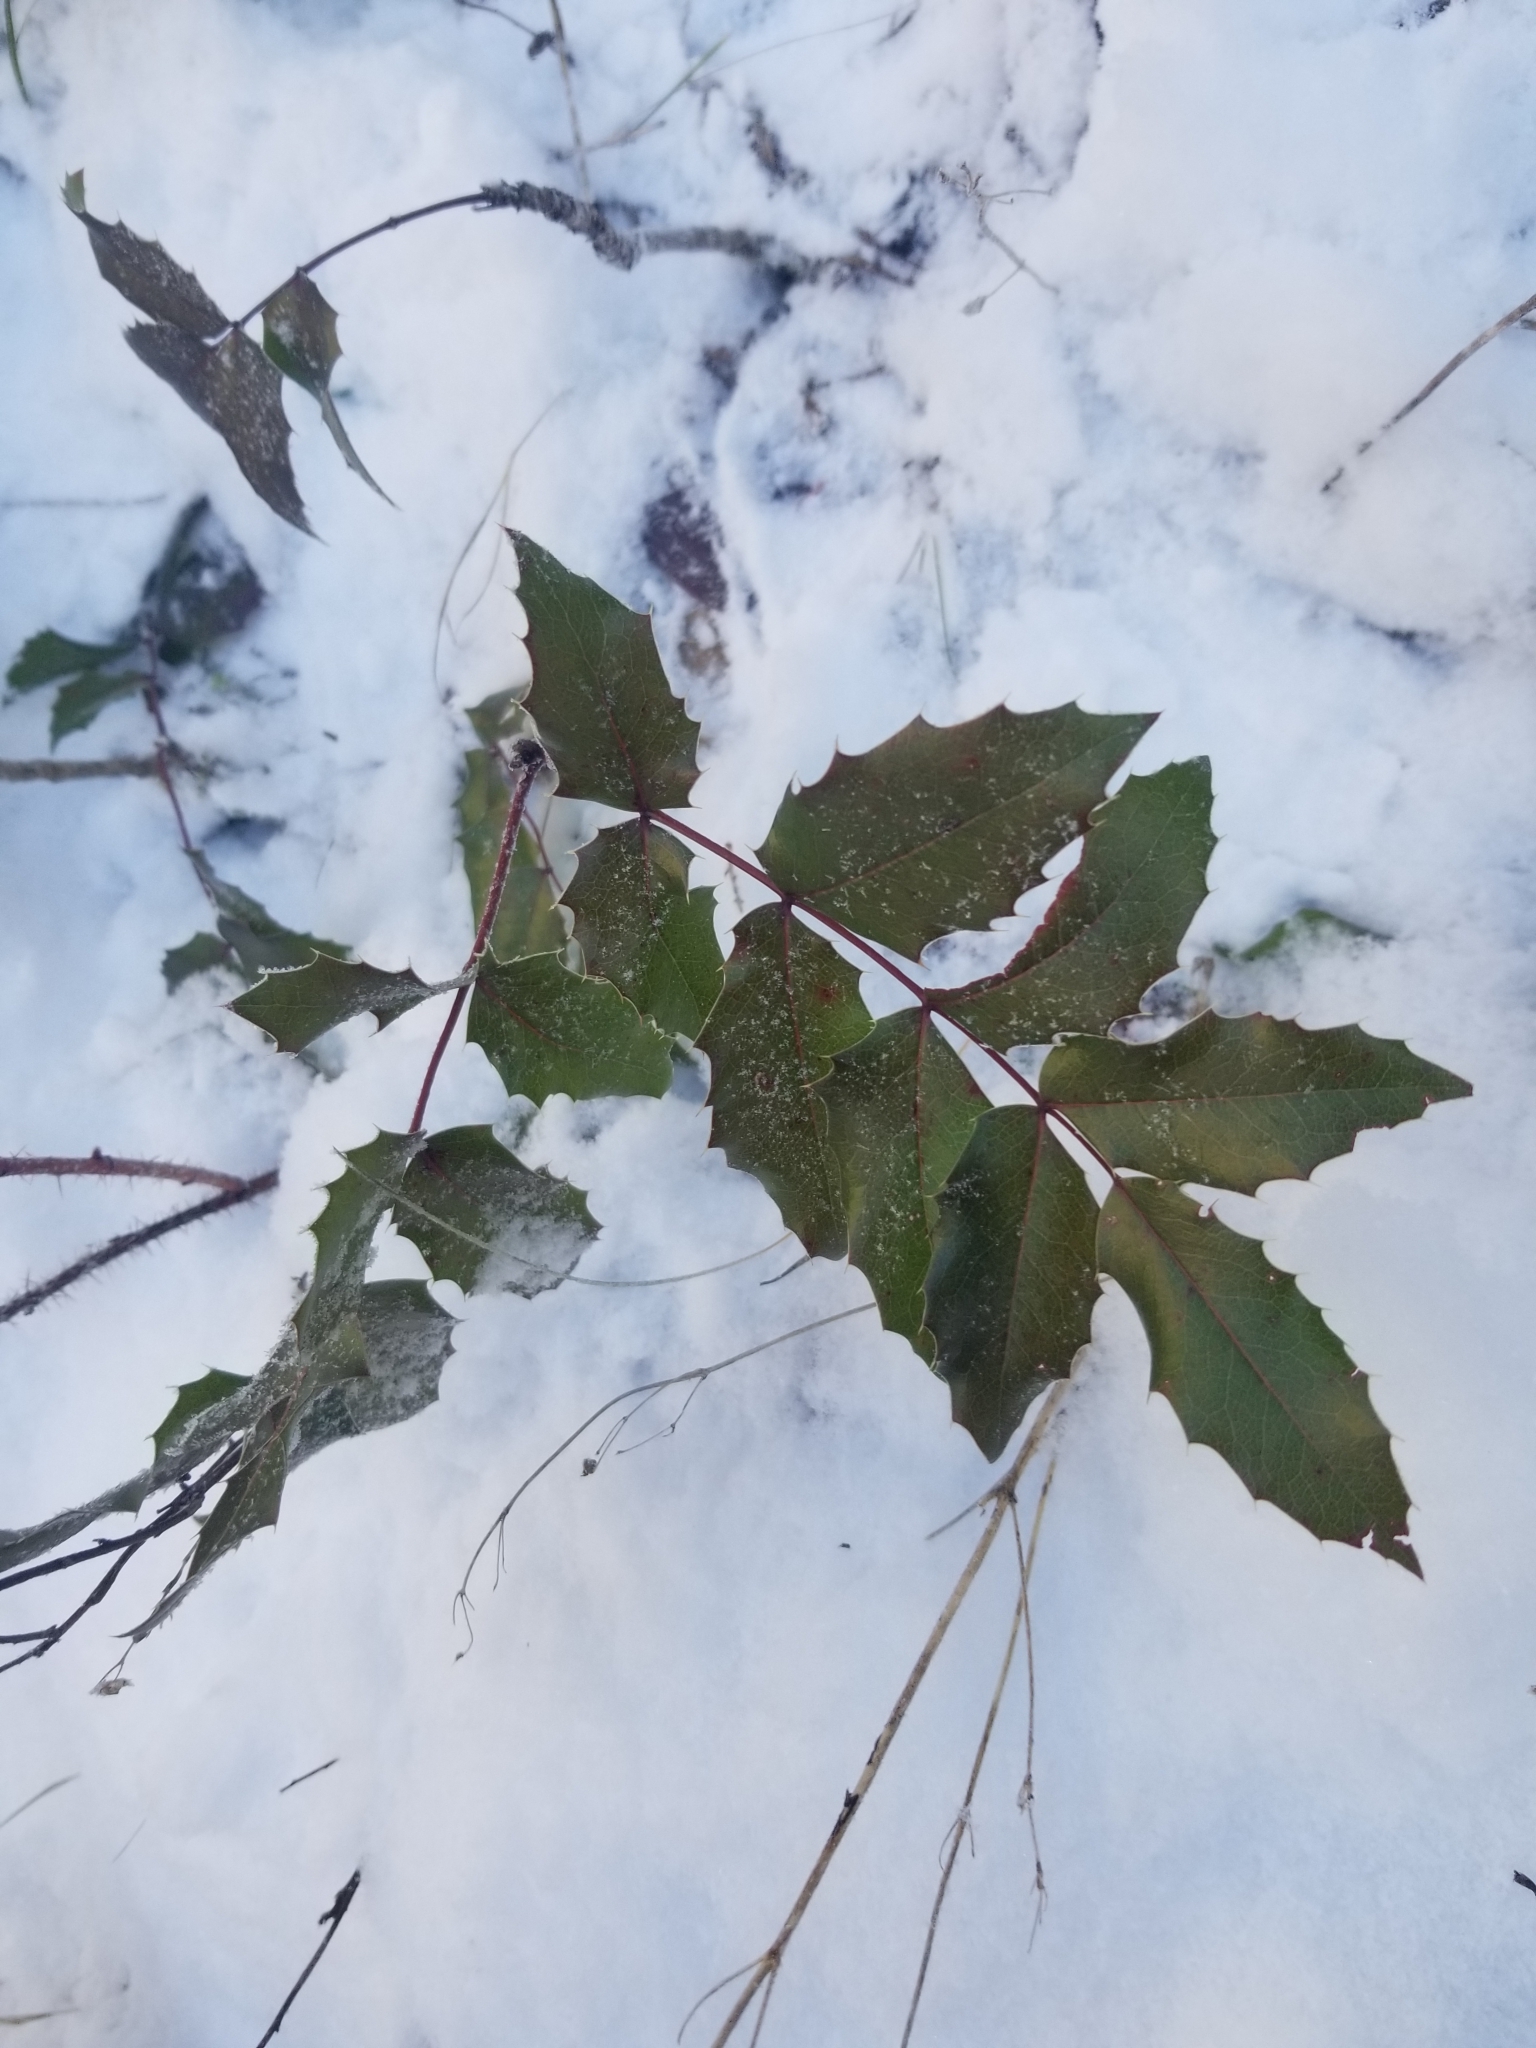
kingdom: Plantae
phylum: Tracheophyta
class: Magnoliopsida
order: Ranunculales
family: Berberidaceae
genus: Mahonia
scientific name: Mahonia aquifolium
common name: Oregon-grape
